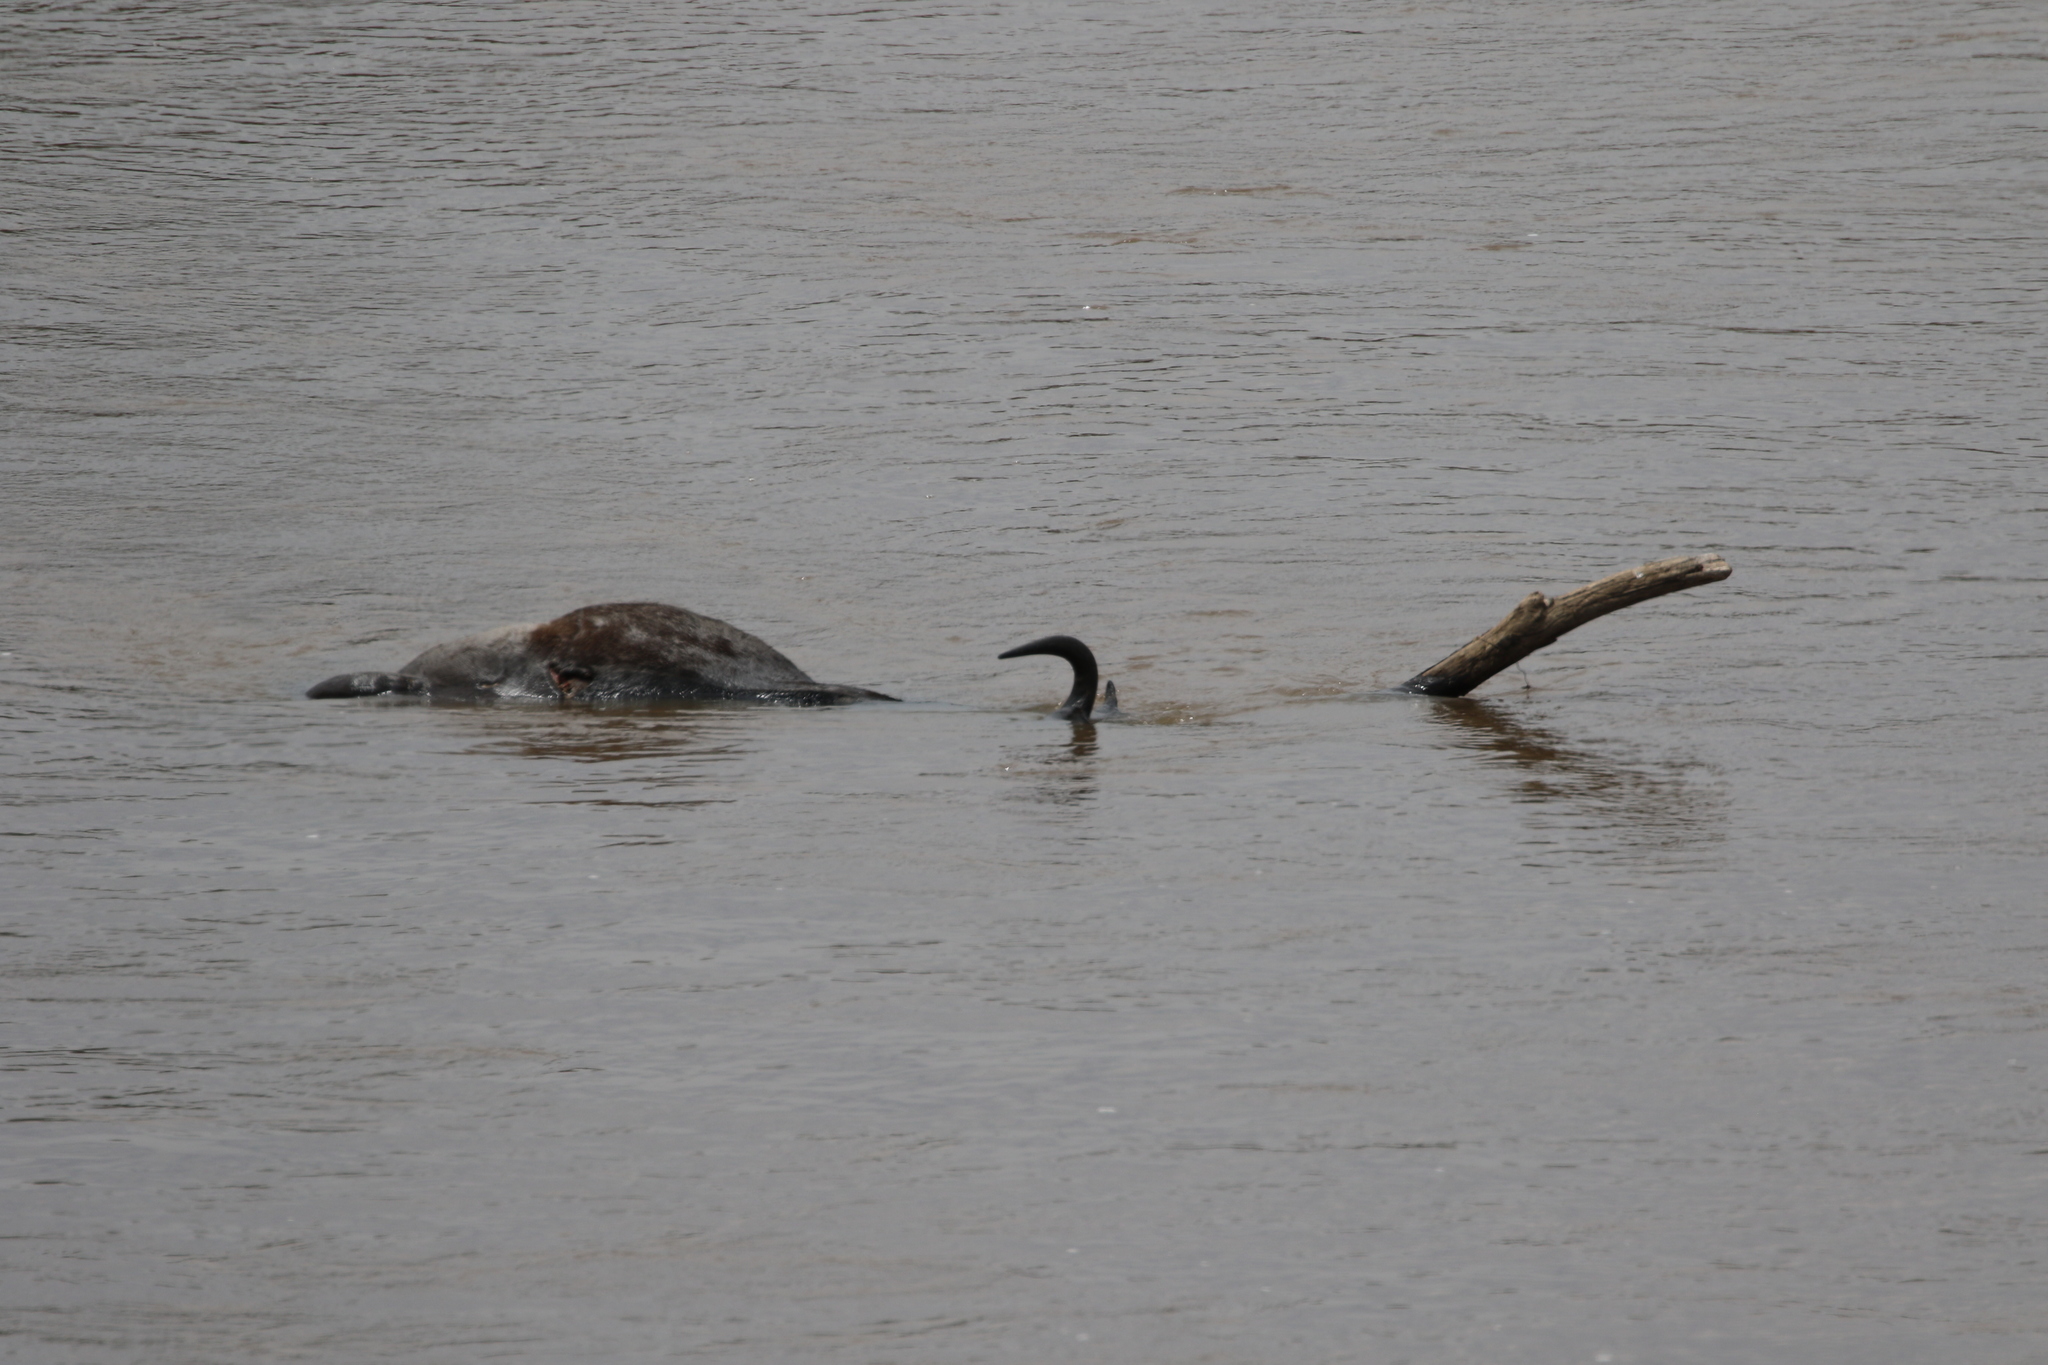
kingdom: Animalia
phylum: Chordata
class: Mammalia
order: Artiodactyla
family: Bovidae
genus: Connochaetes
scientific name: Connochaetes taurinus
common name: Blue wildebeest
